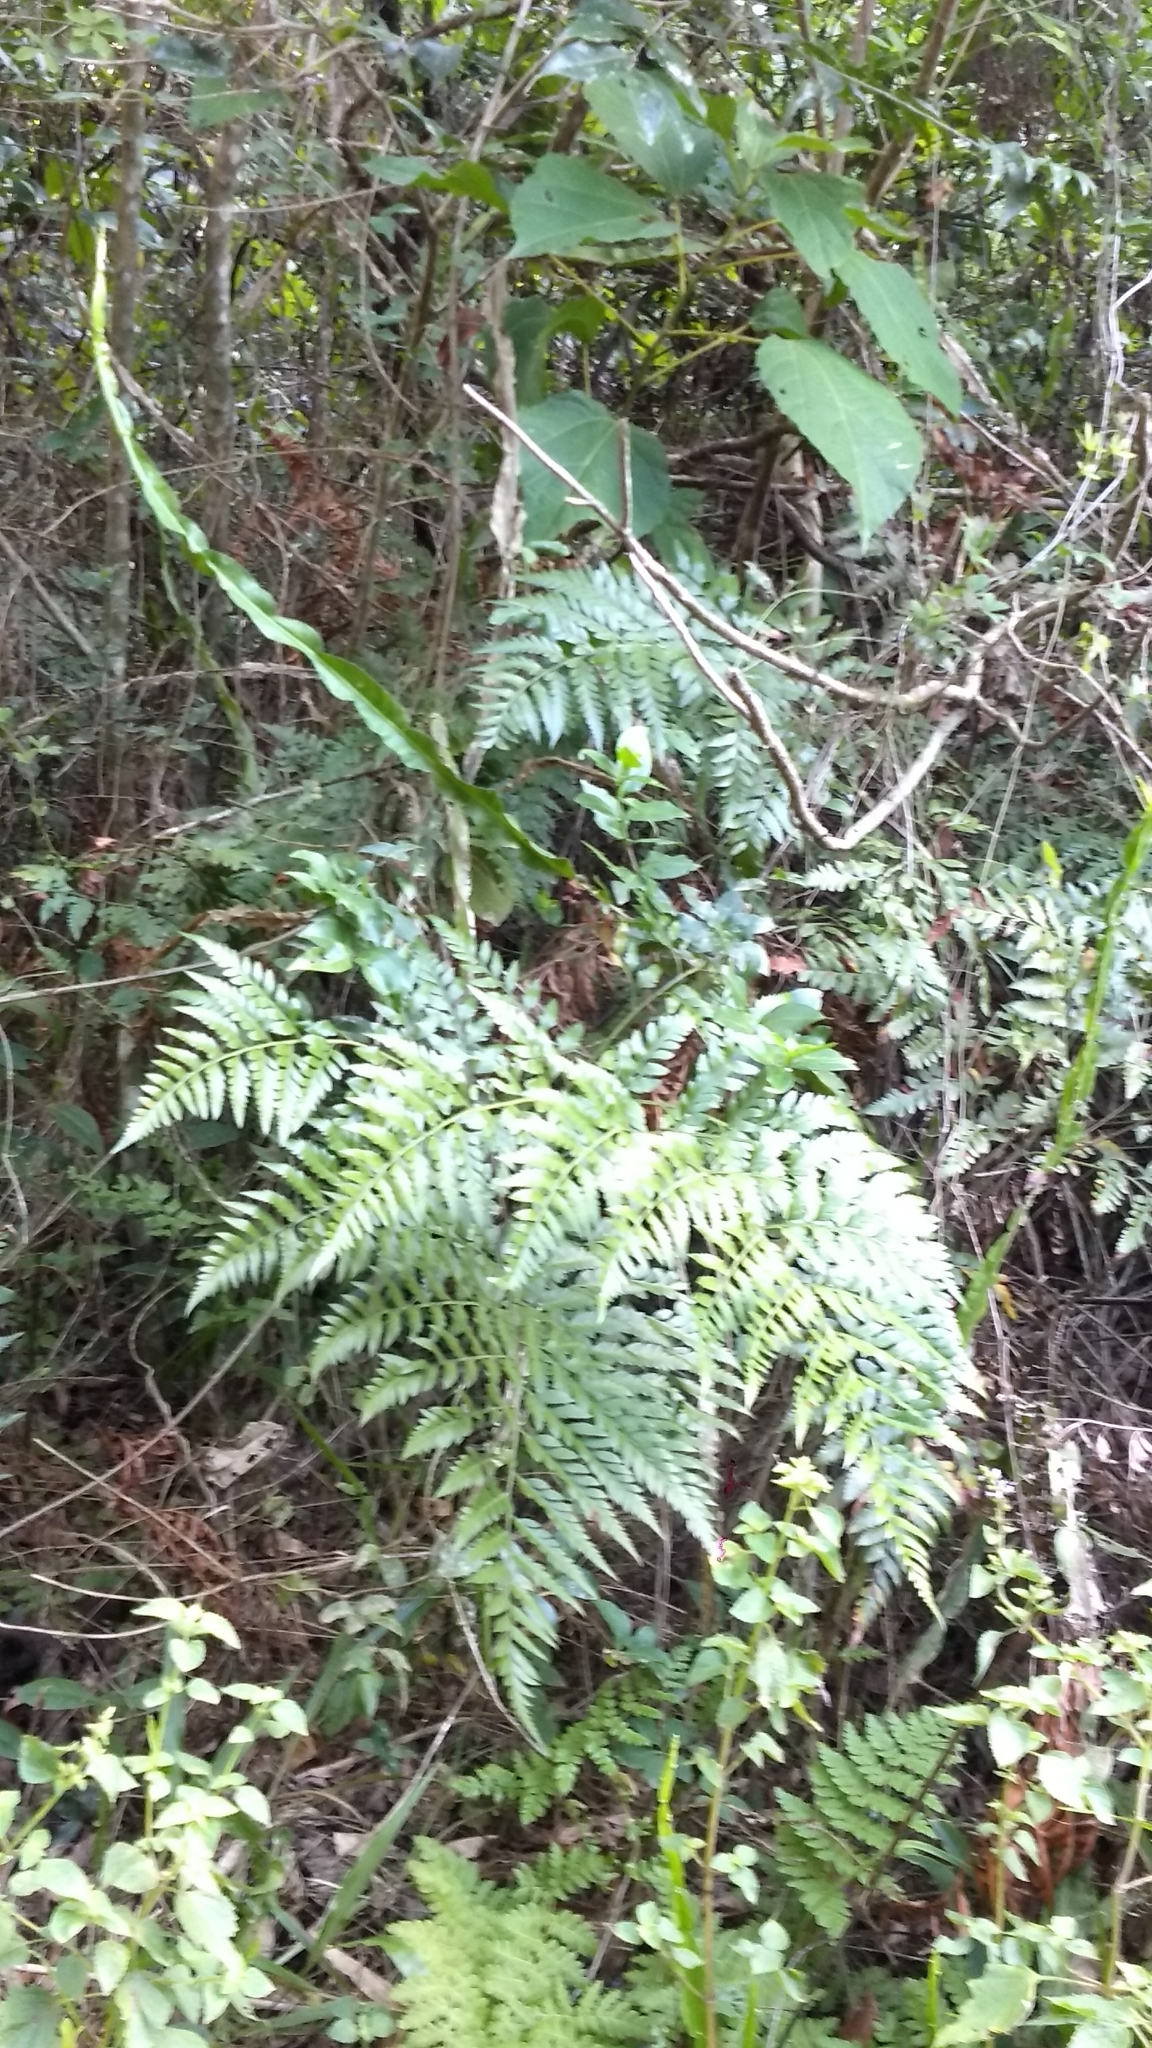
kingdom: Plantae
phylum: Tracheophyta
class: Magnoliopsida
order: Asterales
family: Asteraceae
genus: Baccharis
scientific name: Baccharis genistelloides
